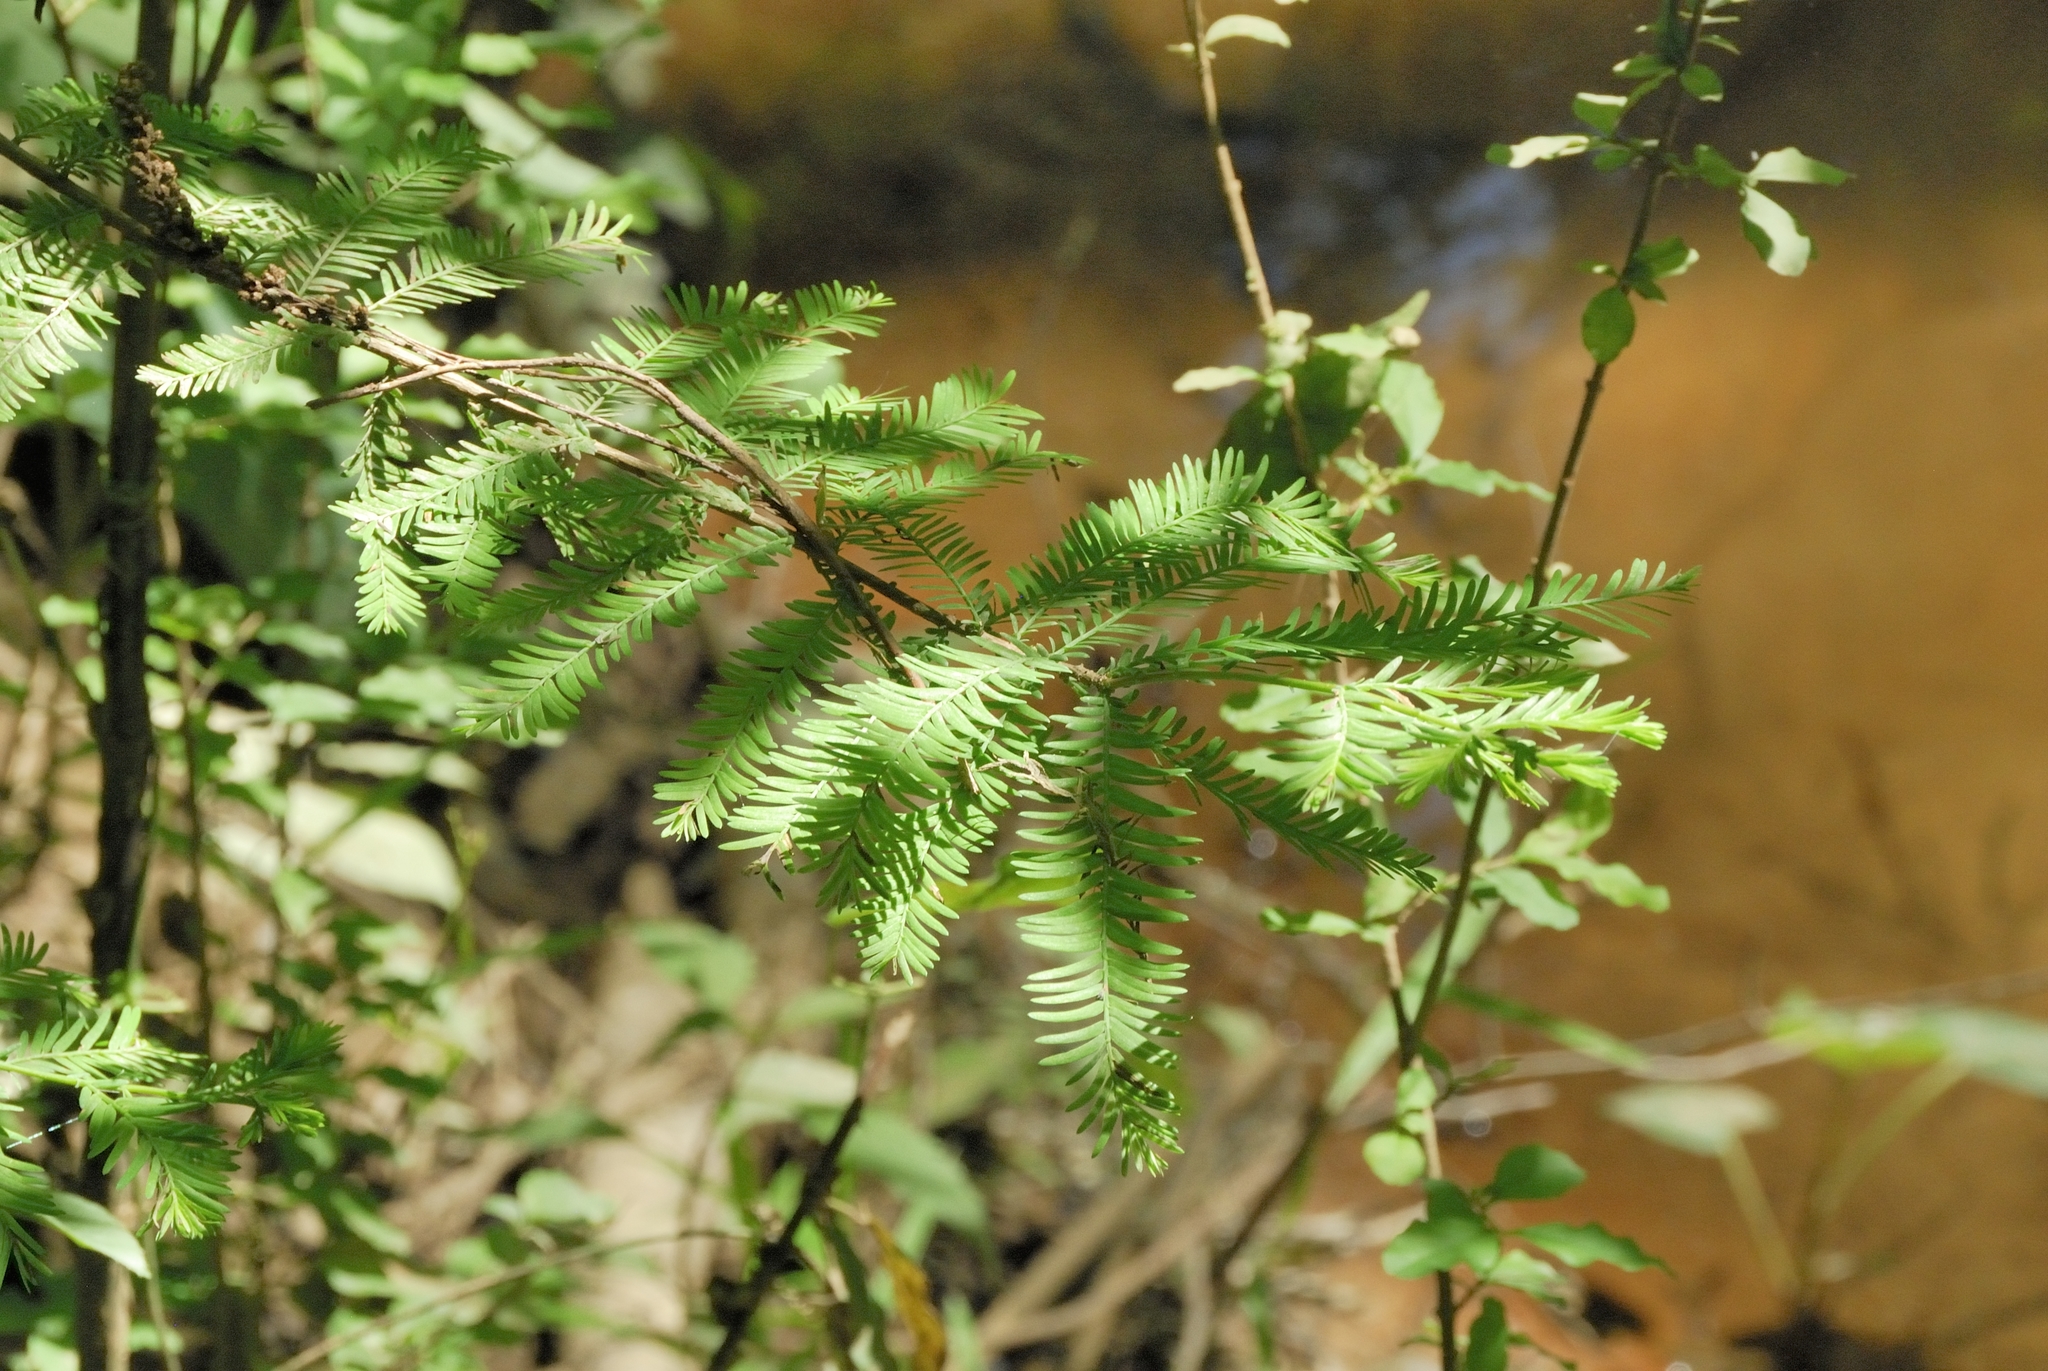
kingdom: Plantae
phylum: Tracheophyta
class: Pinopsida
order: Pinales
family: Cupressaceae
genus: Taxodium
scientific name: Taxodium distichum
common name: Bald cypress
